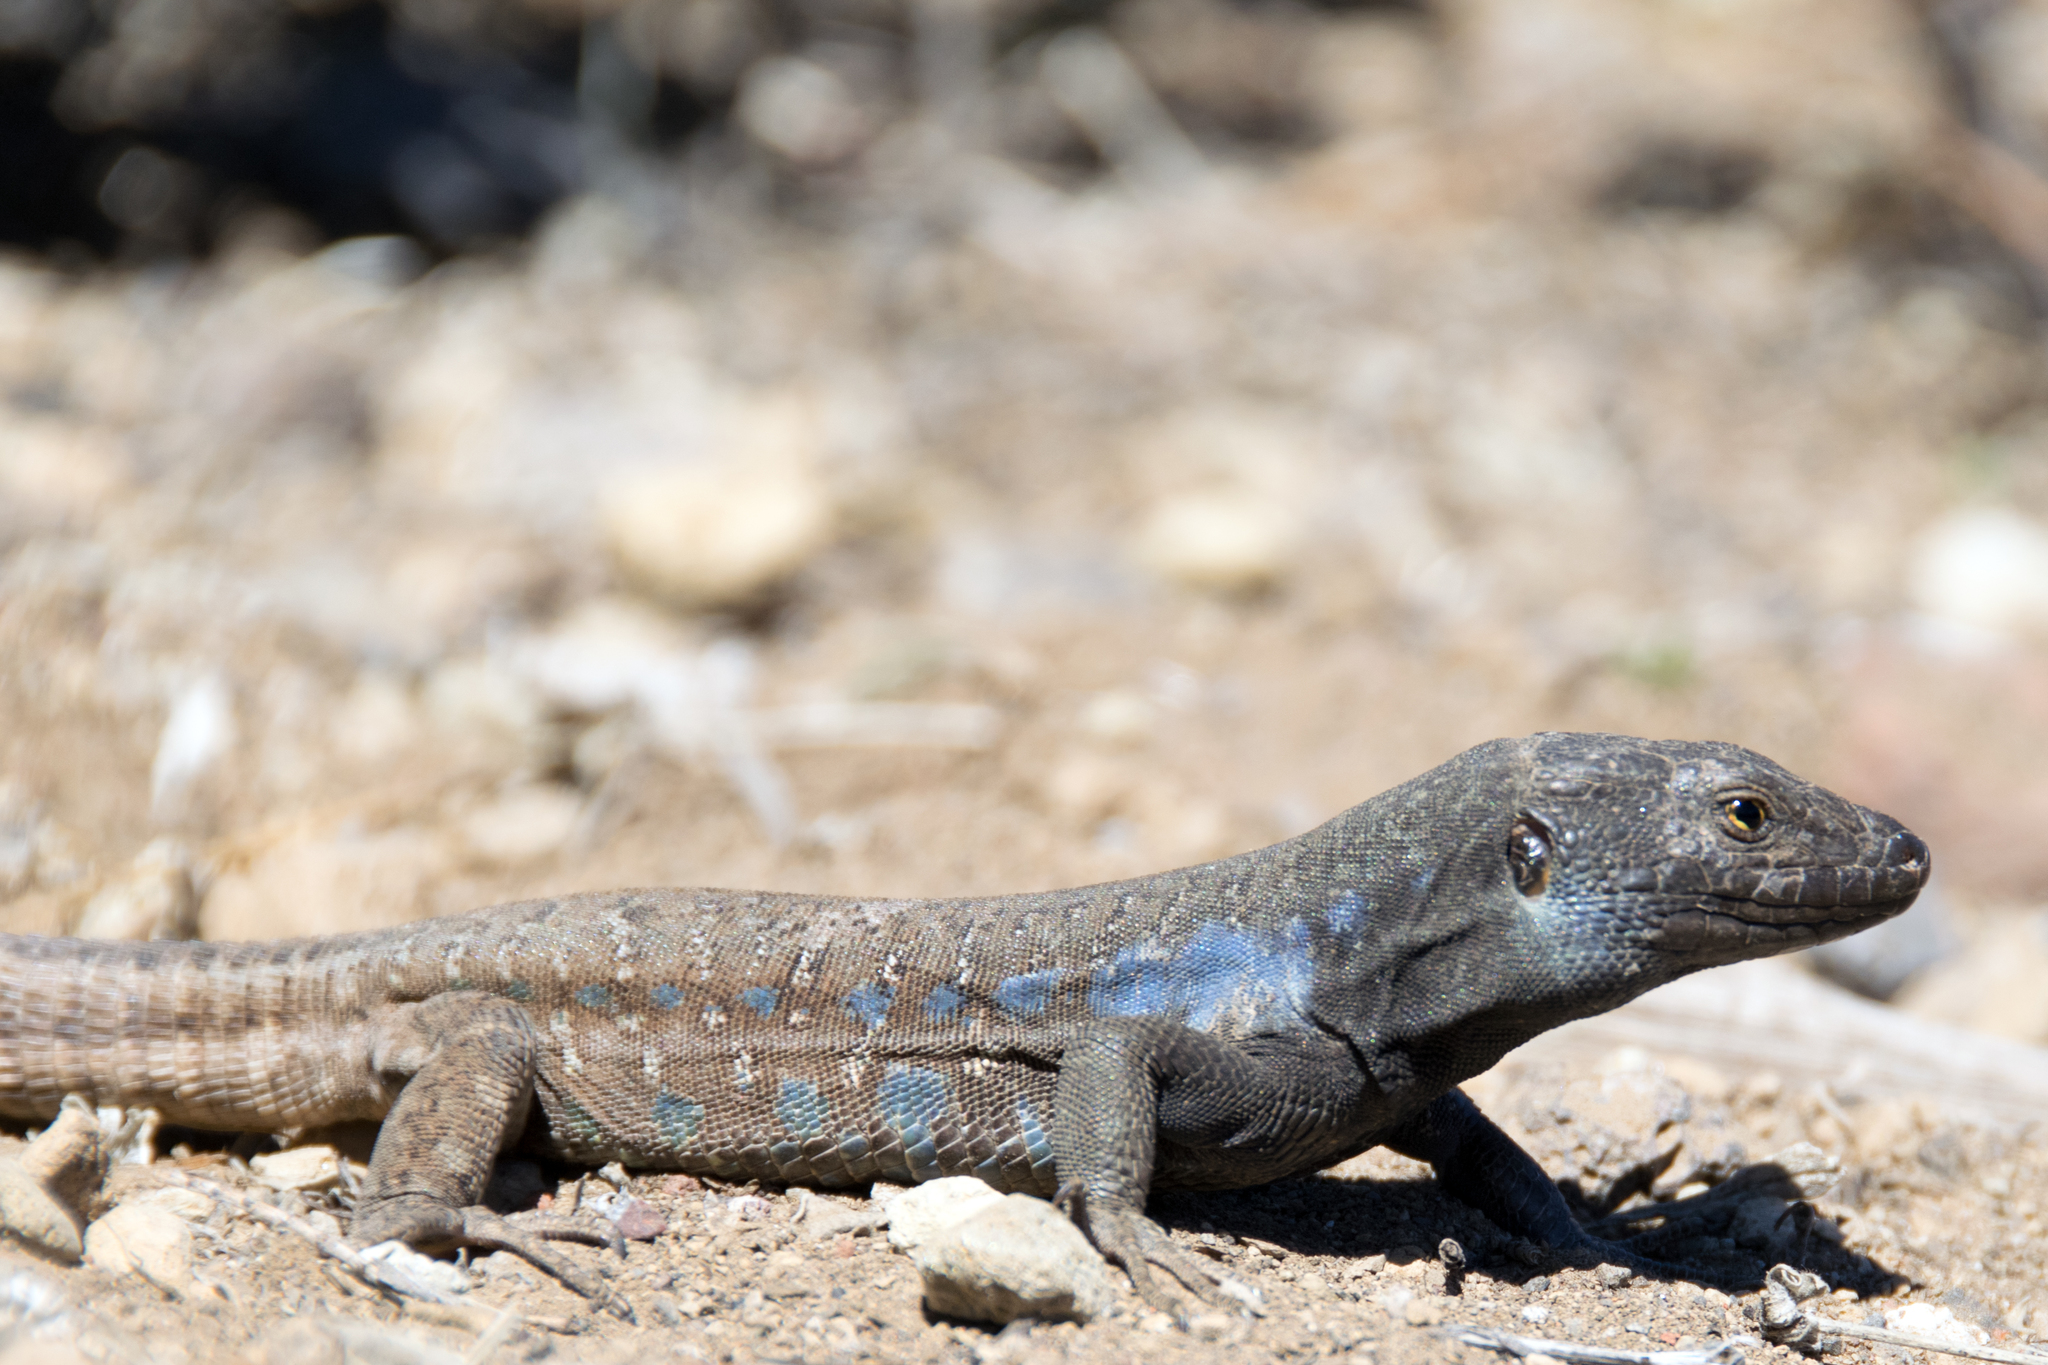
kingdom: Animalia
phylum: Chordata
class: Squamata
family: Lacertidae
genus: Gallotia
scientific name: Gallotia galloti
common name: Gallot's lizard
